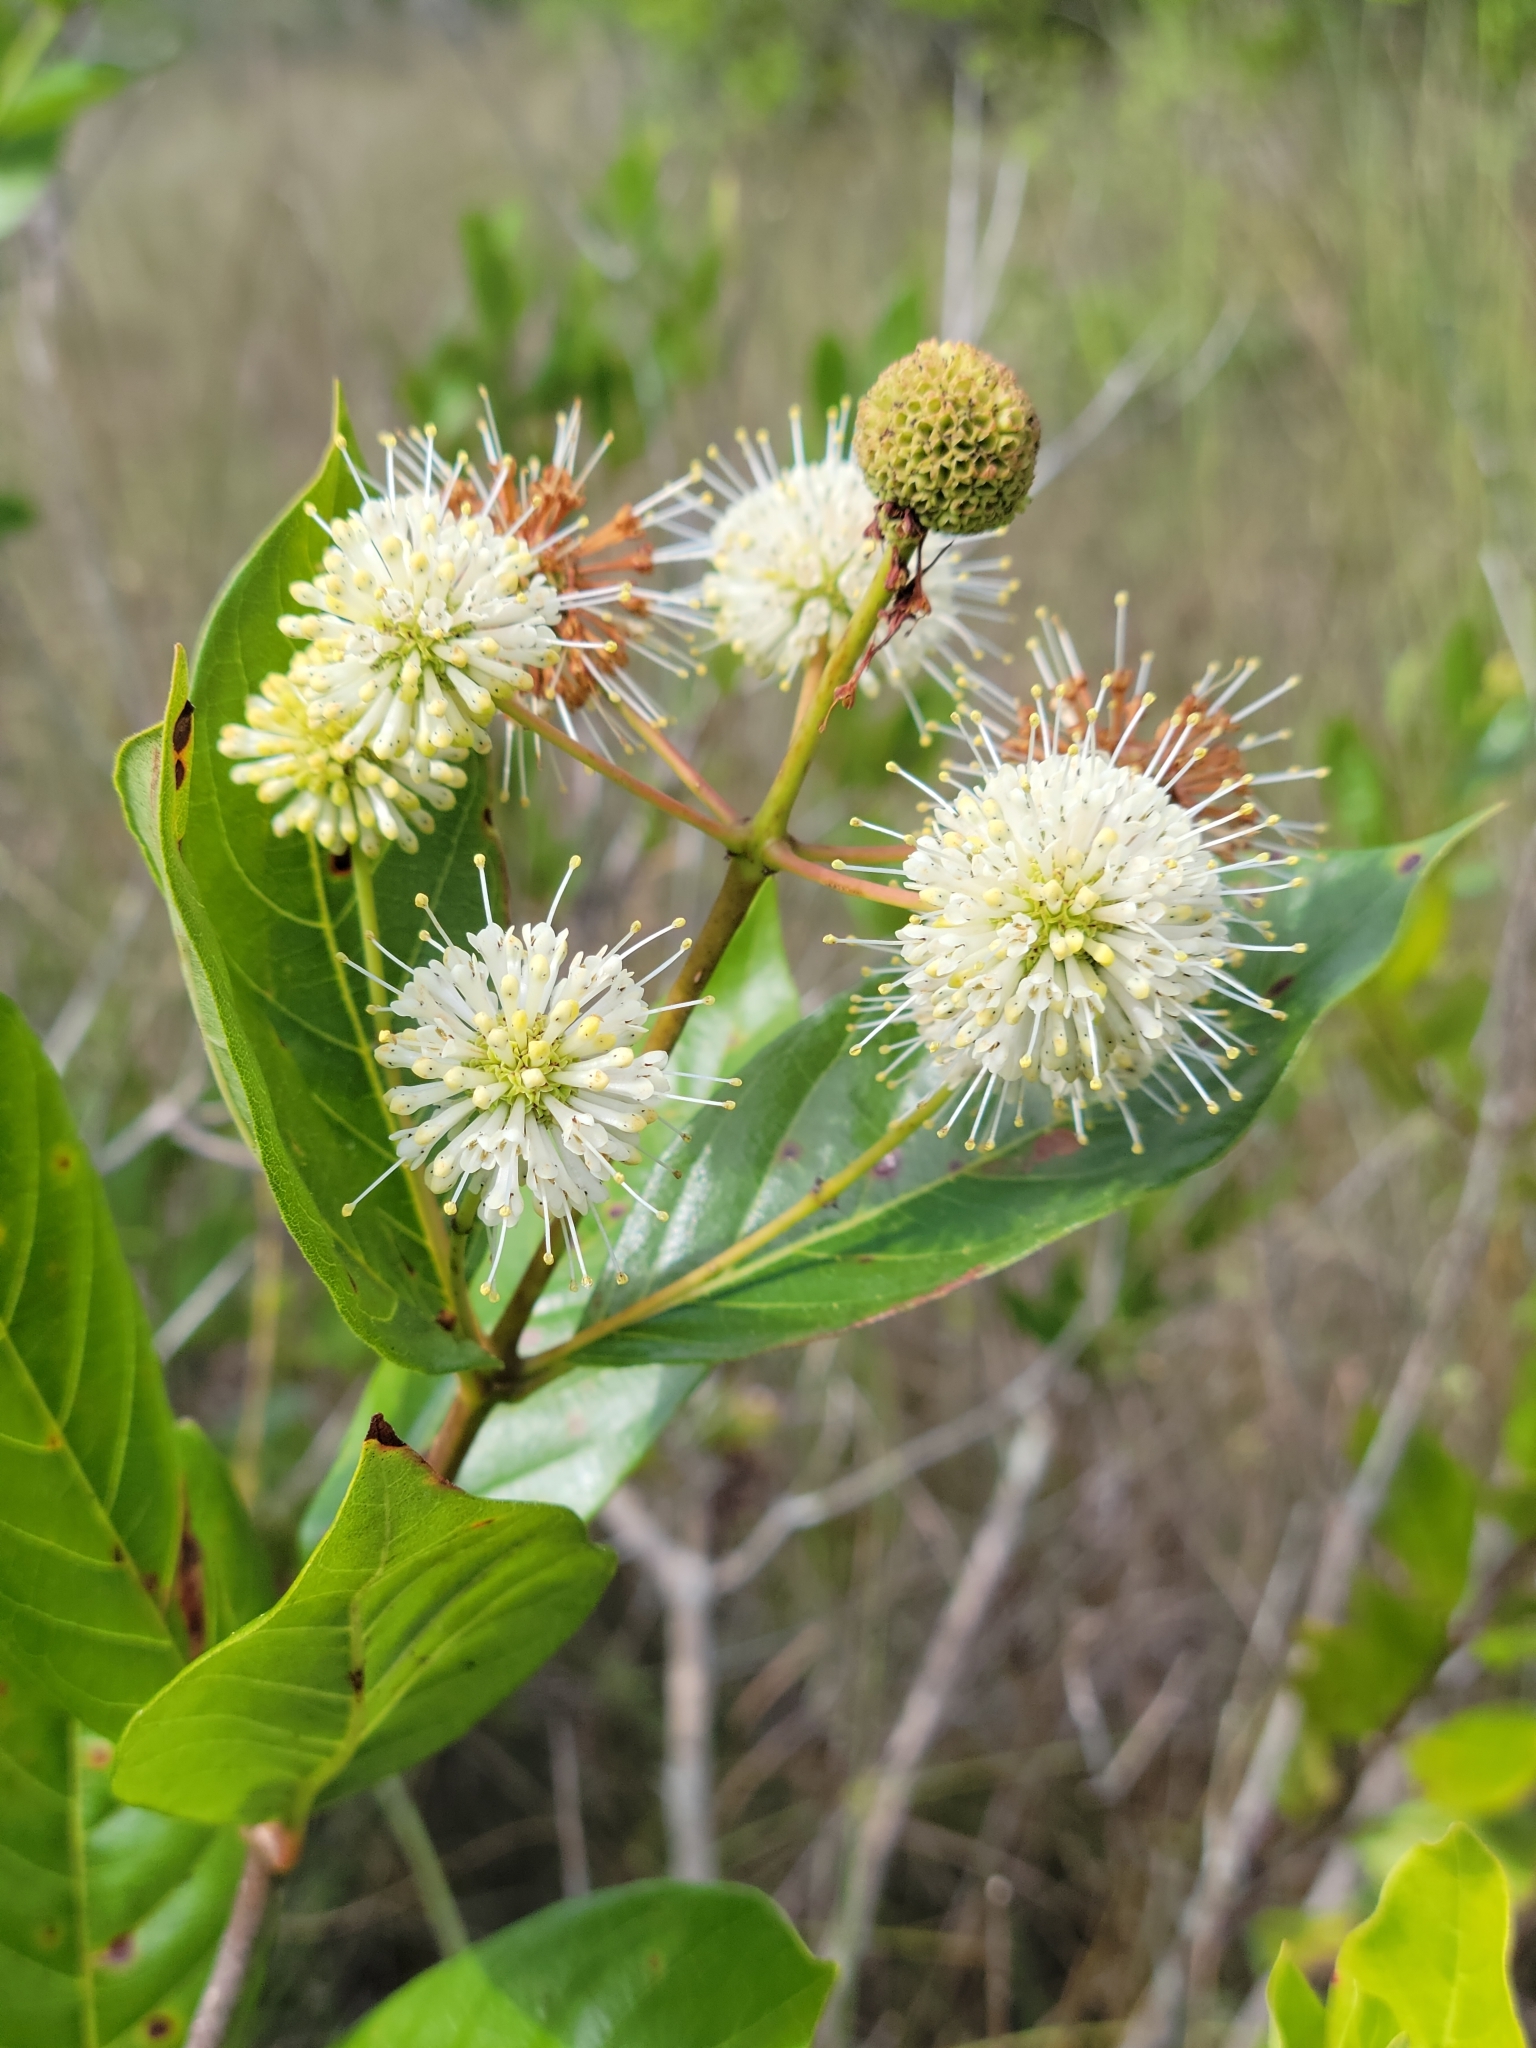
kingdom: Plantae
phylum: Tracheophyta
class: Magnoliopsida
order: Gentianales
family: Rubiaceae
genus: Cephalanthus
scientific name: Cephalanthus occidentalis
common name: Button-willow
